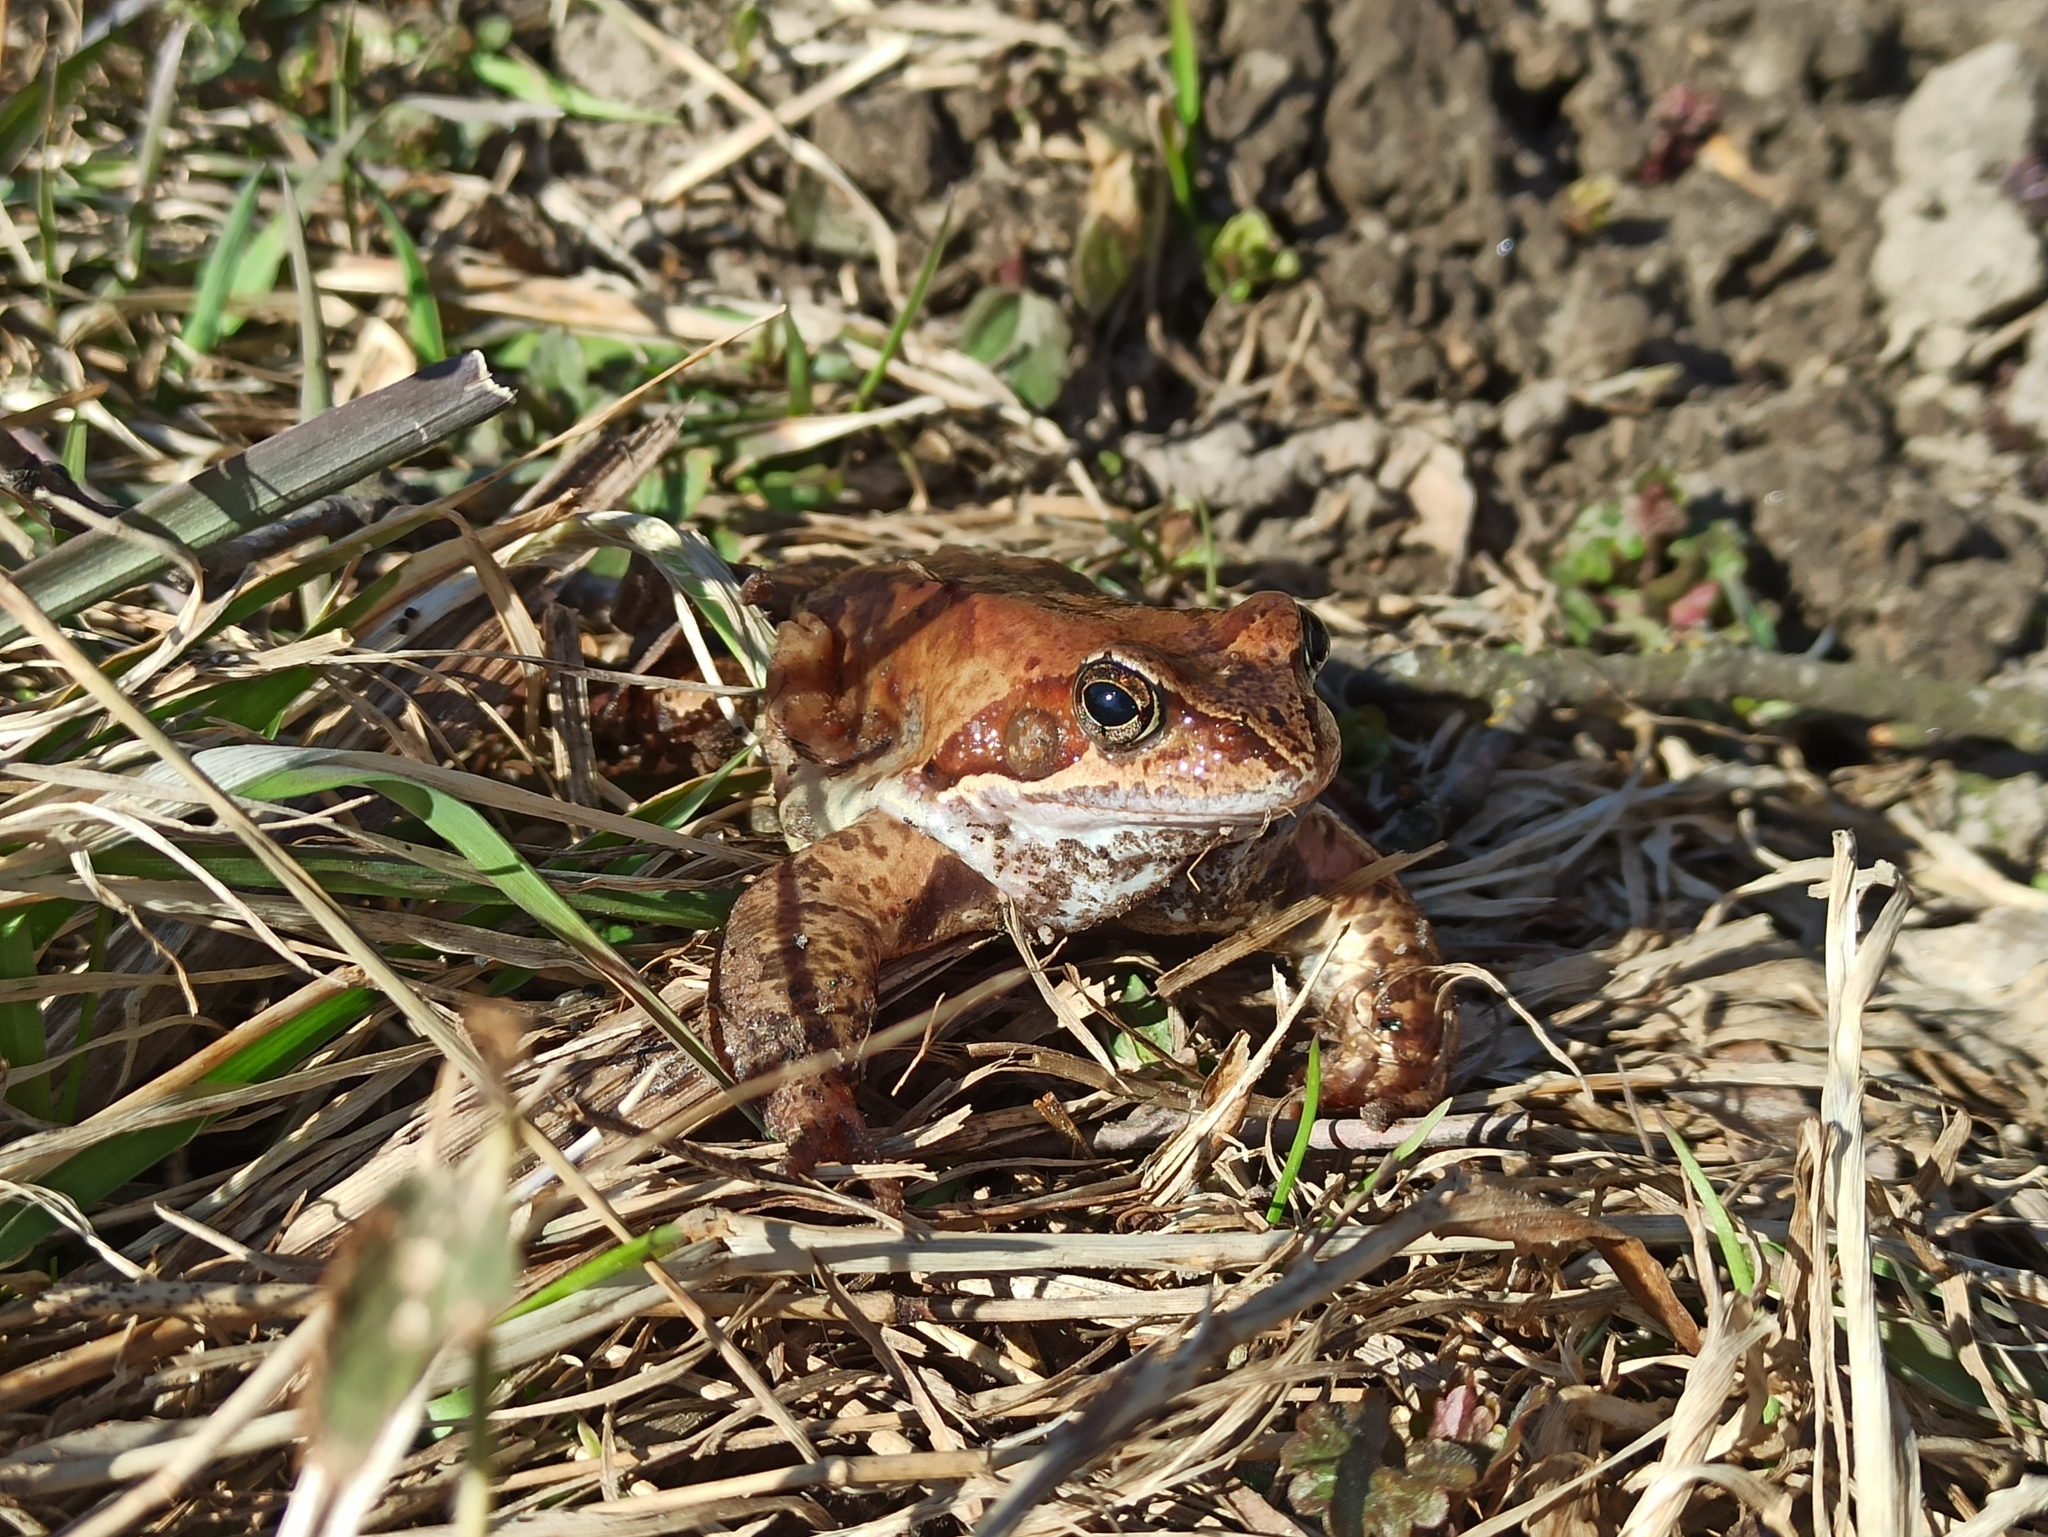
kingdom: Animalia
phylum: Chordata
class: Amphibia
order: Anura
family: Ranidae
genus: Rana
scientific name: Rana temporaria
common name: Common frog
